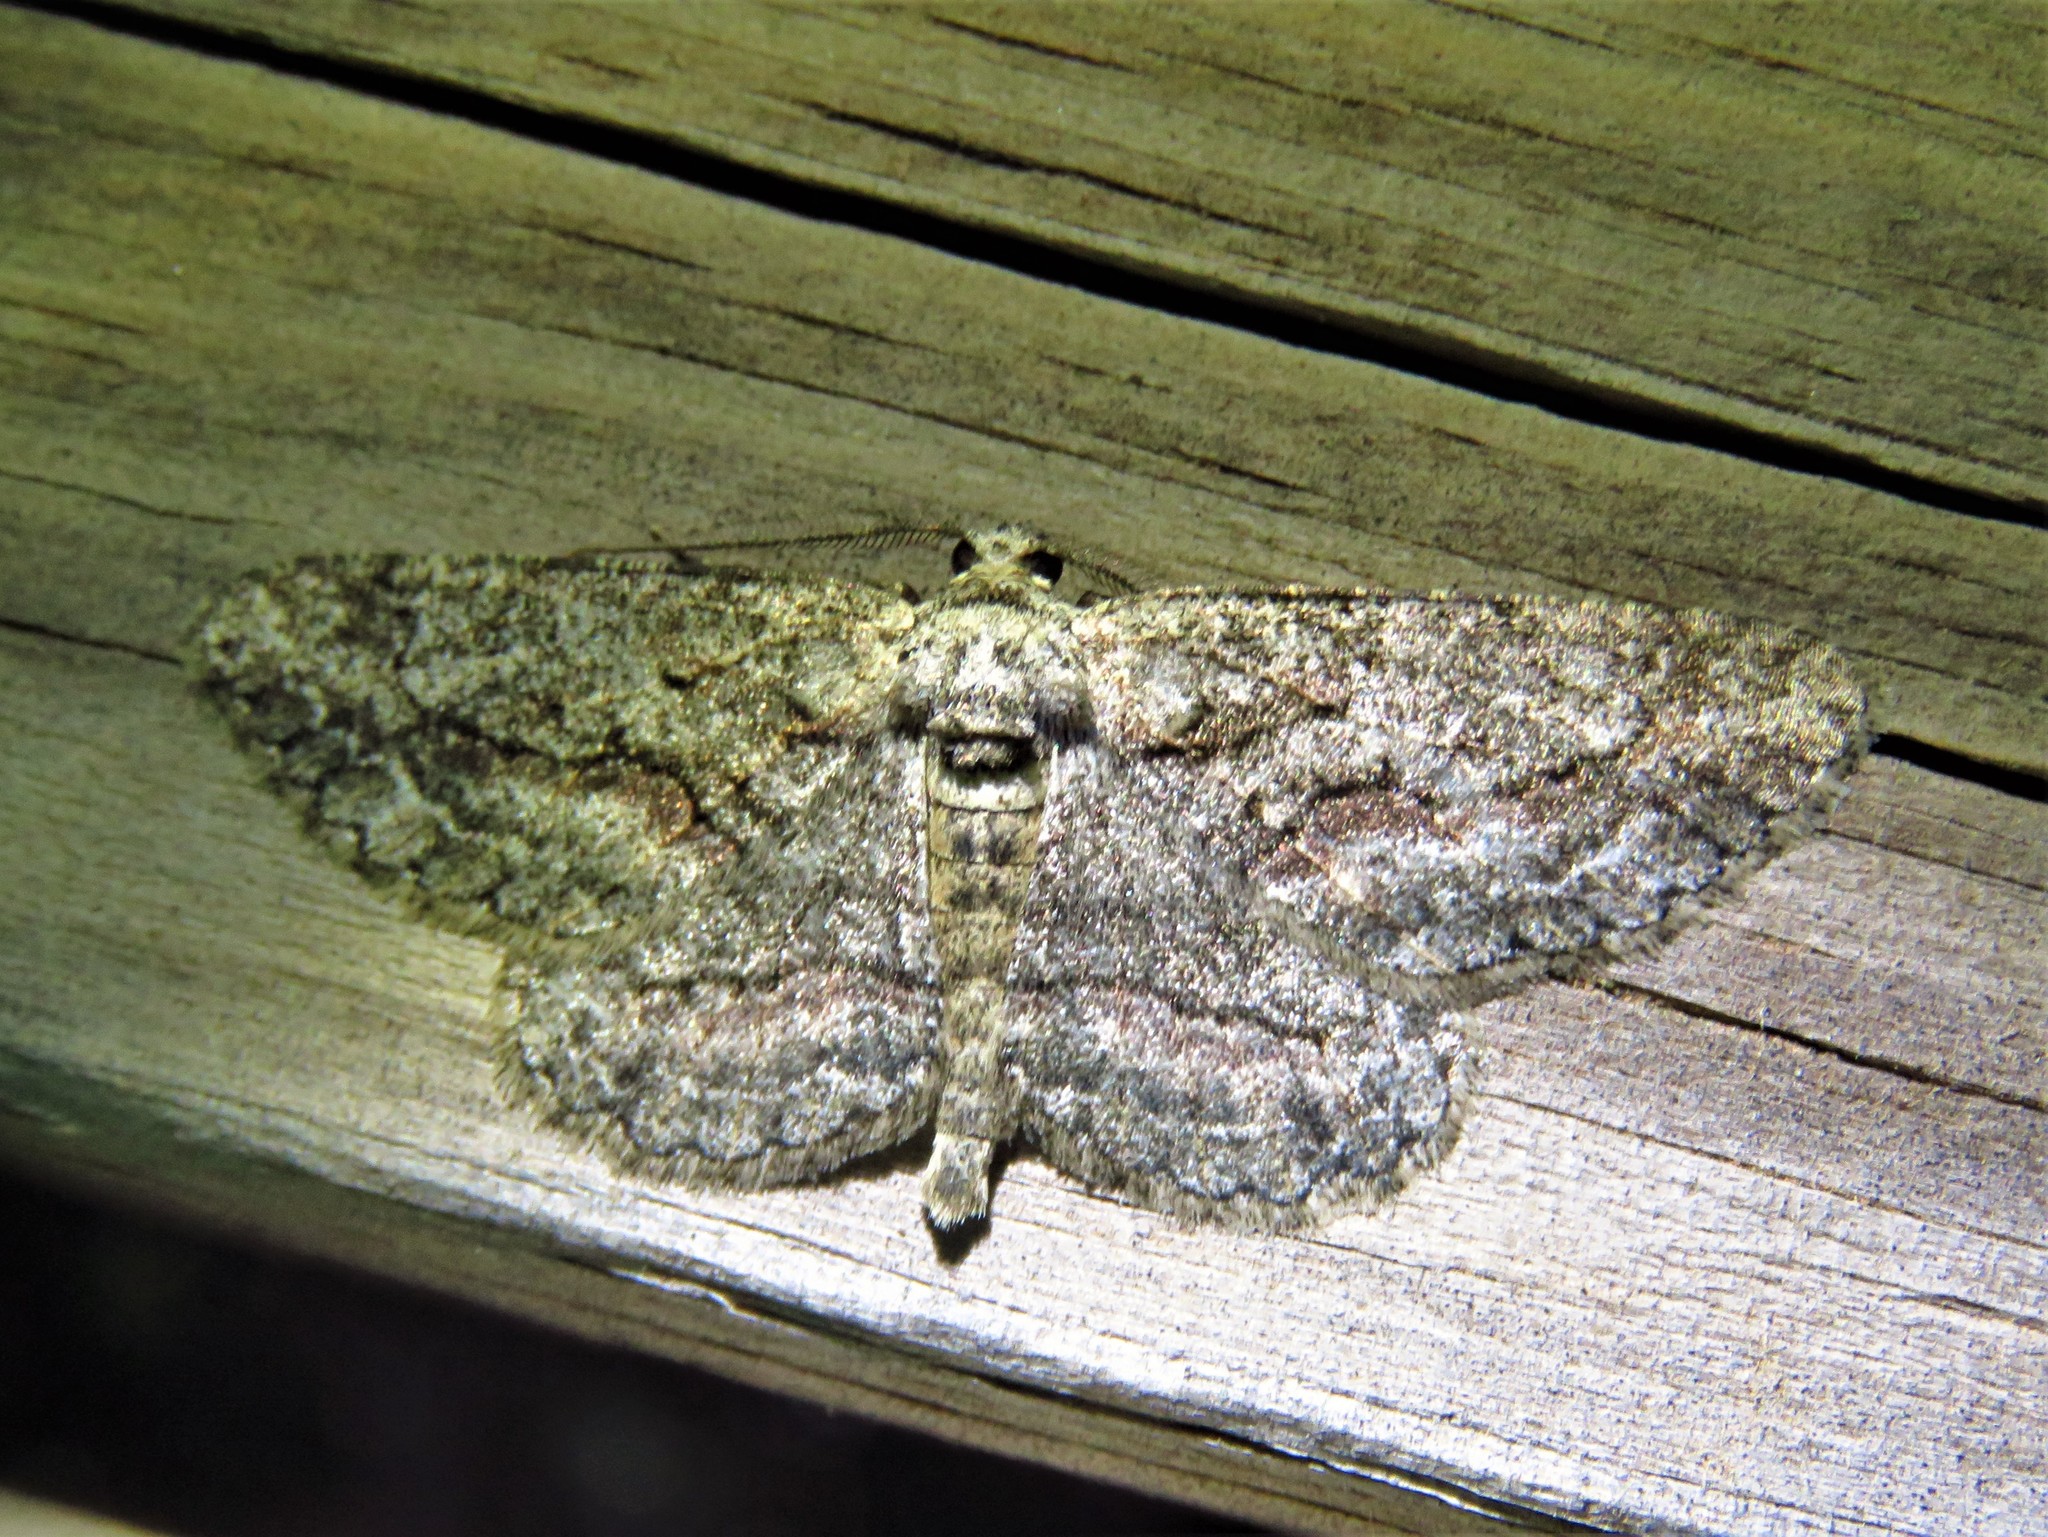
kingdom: Animalia
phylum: Arthropoda
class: Insecta
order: Lepidoptera
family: Geometridae
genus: Anavitrinella
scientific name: Anavitrinella pampinaria
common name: Common gray
